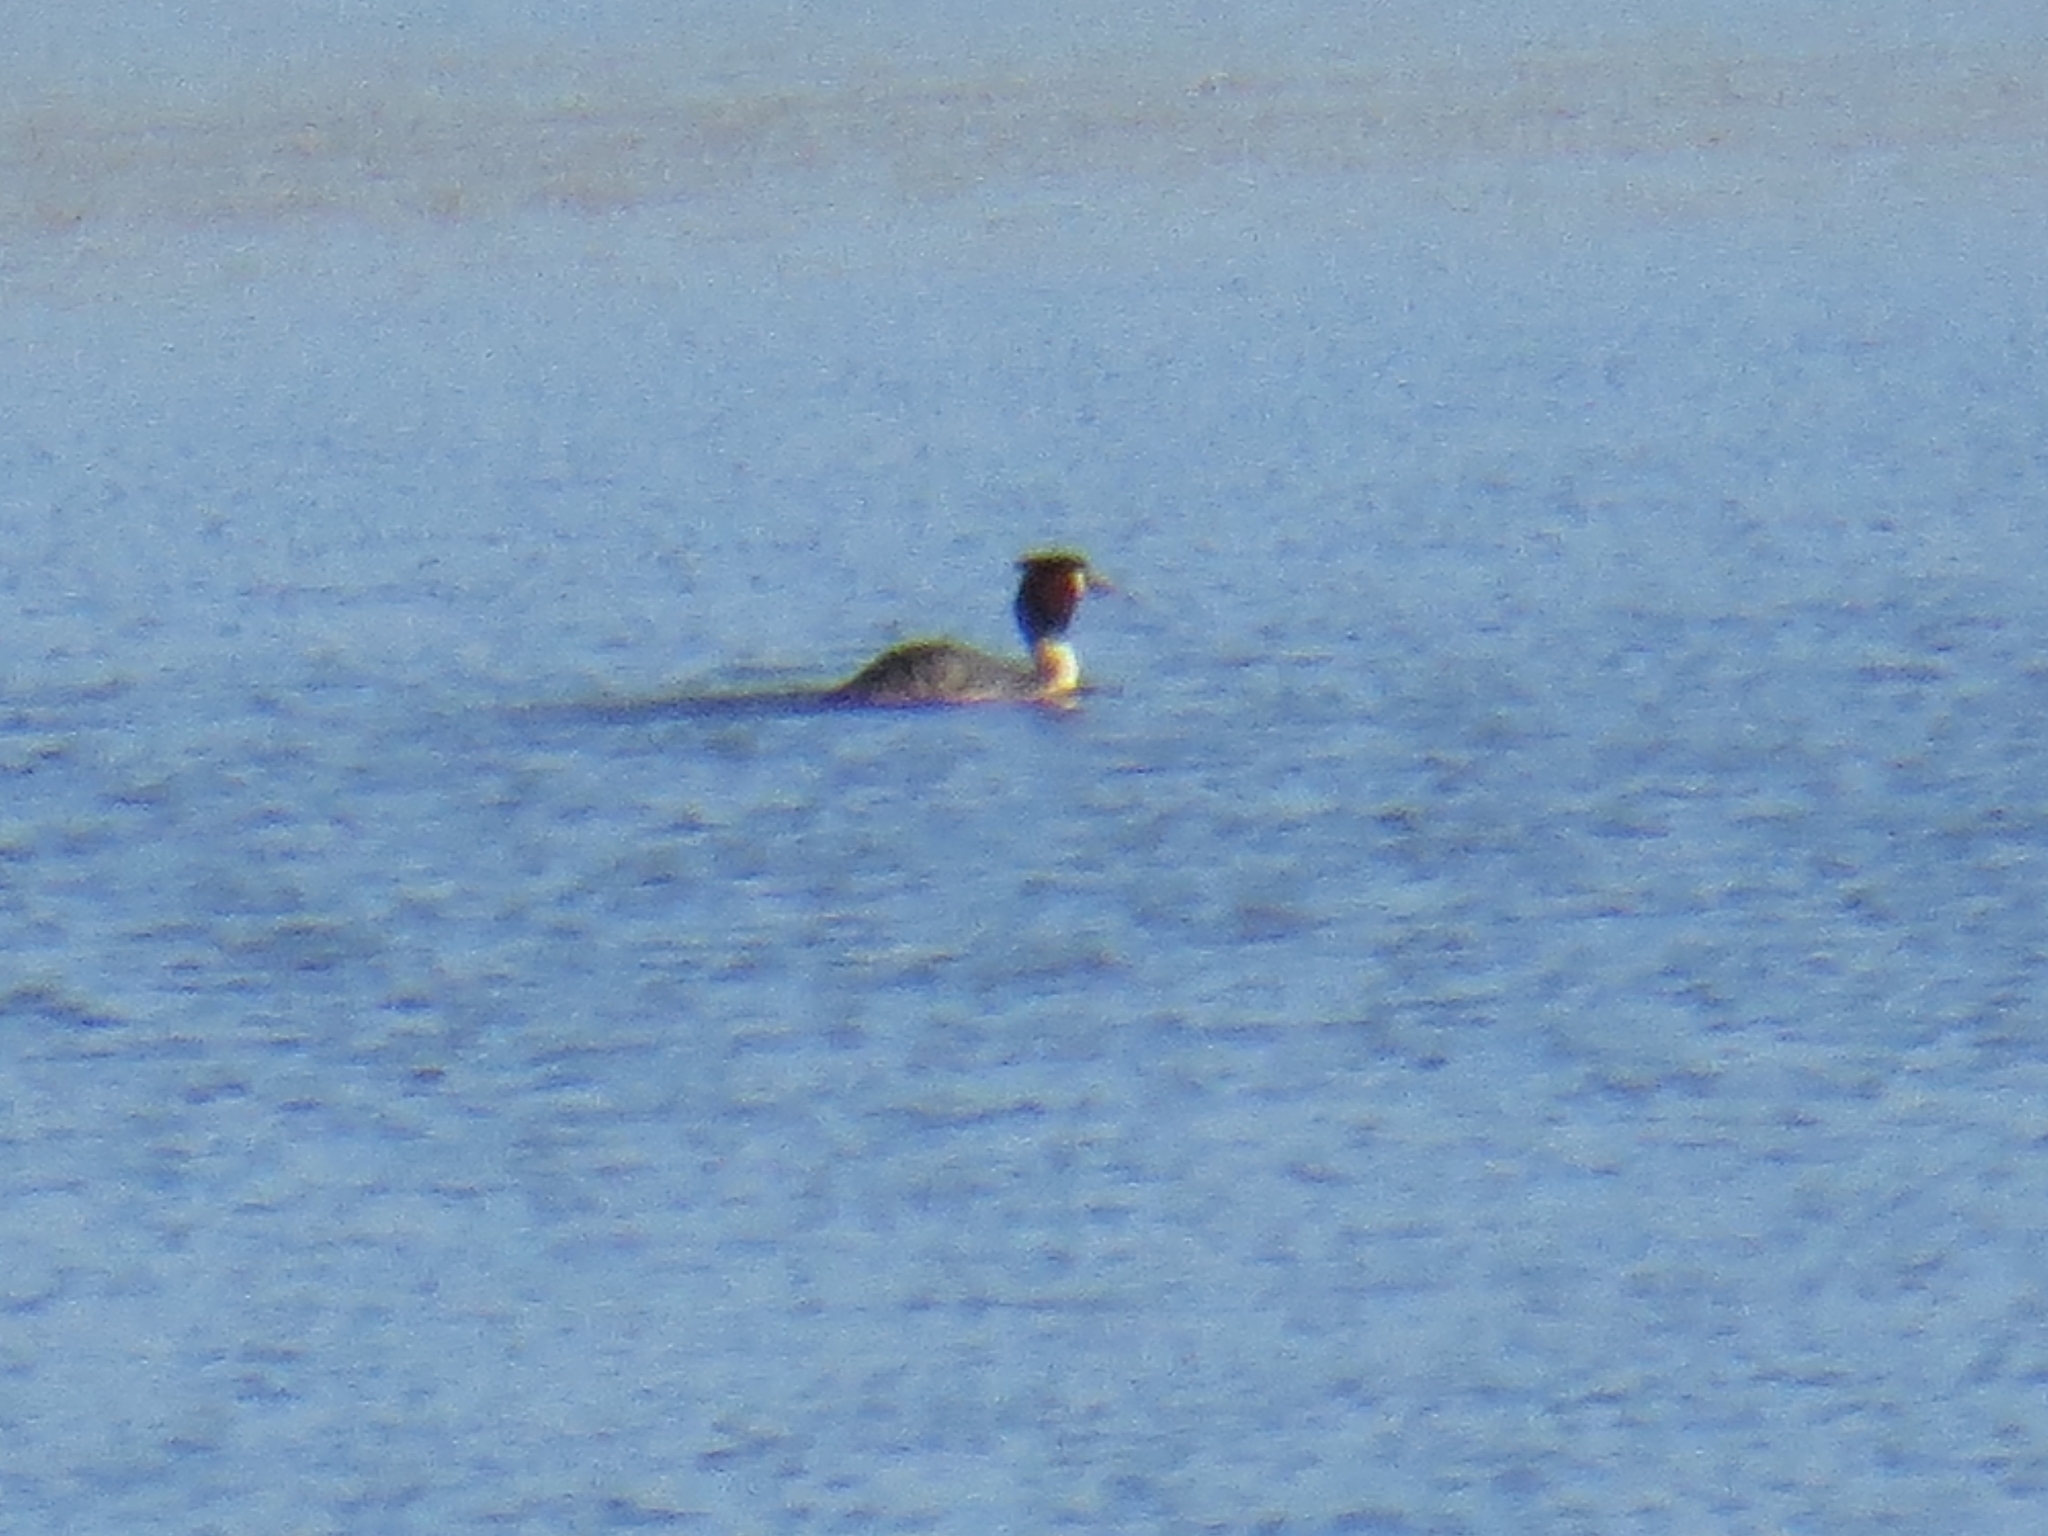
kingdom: Animalia
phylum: Chordata
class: Aves
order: Podicipediformes
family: Podicipedidae
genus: Podiceps
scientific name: Podiceps cristatus
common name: Great crested grebe
